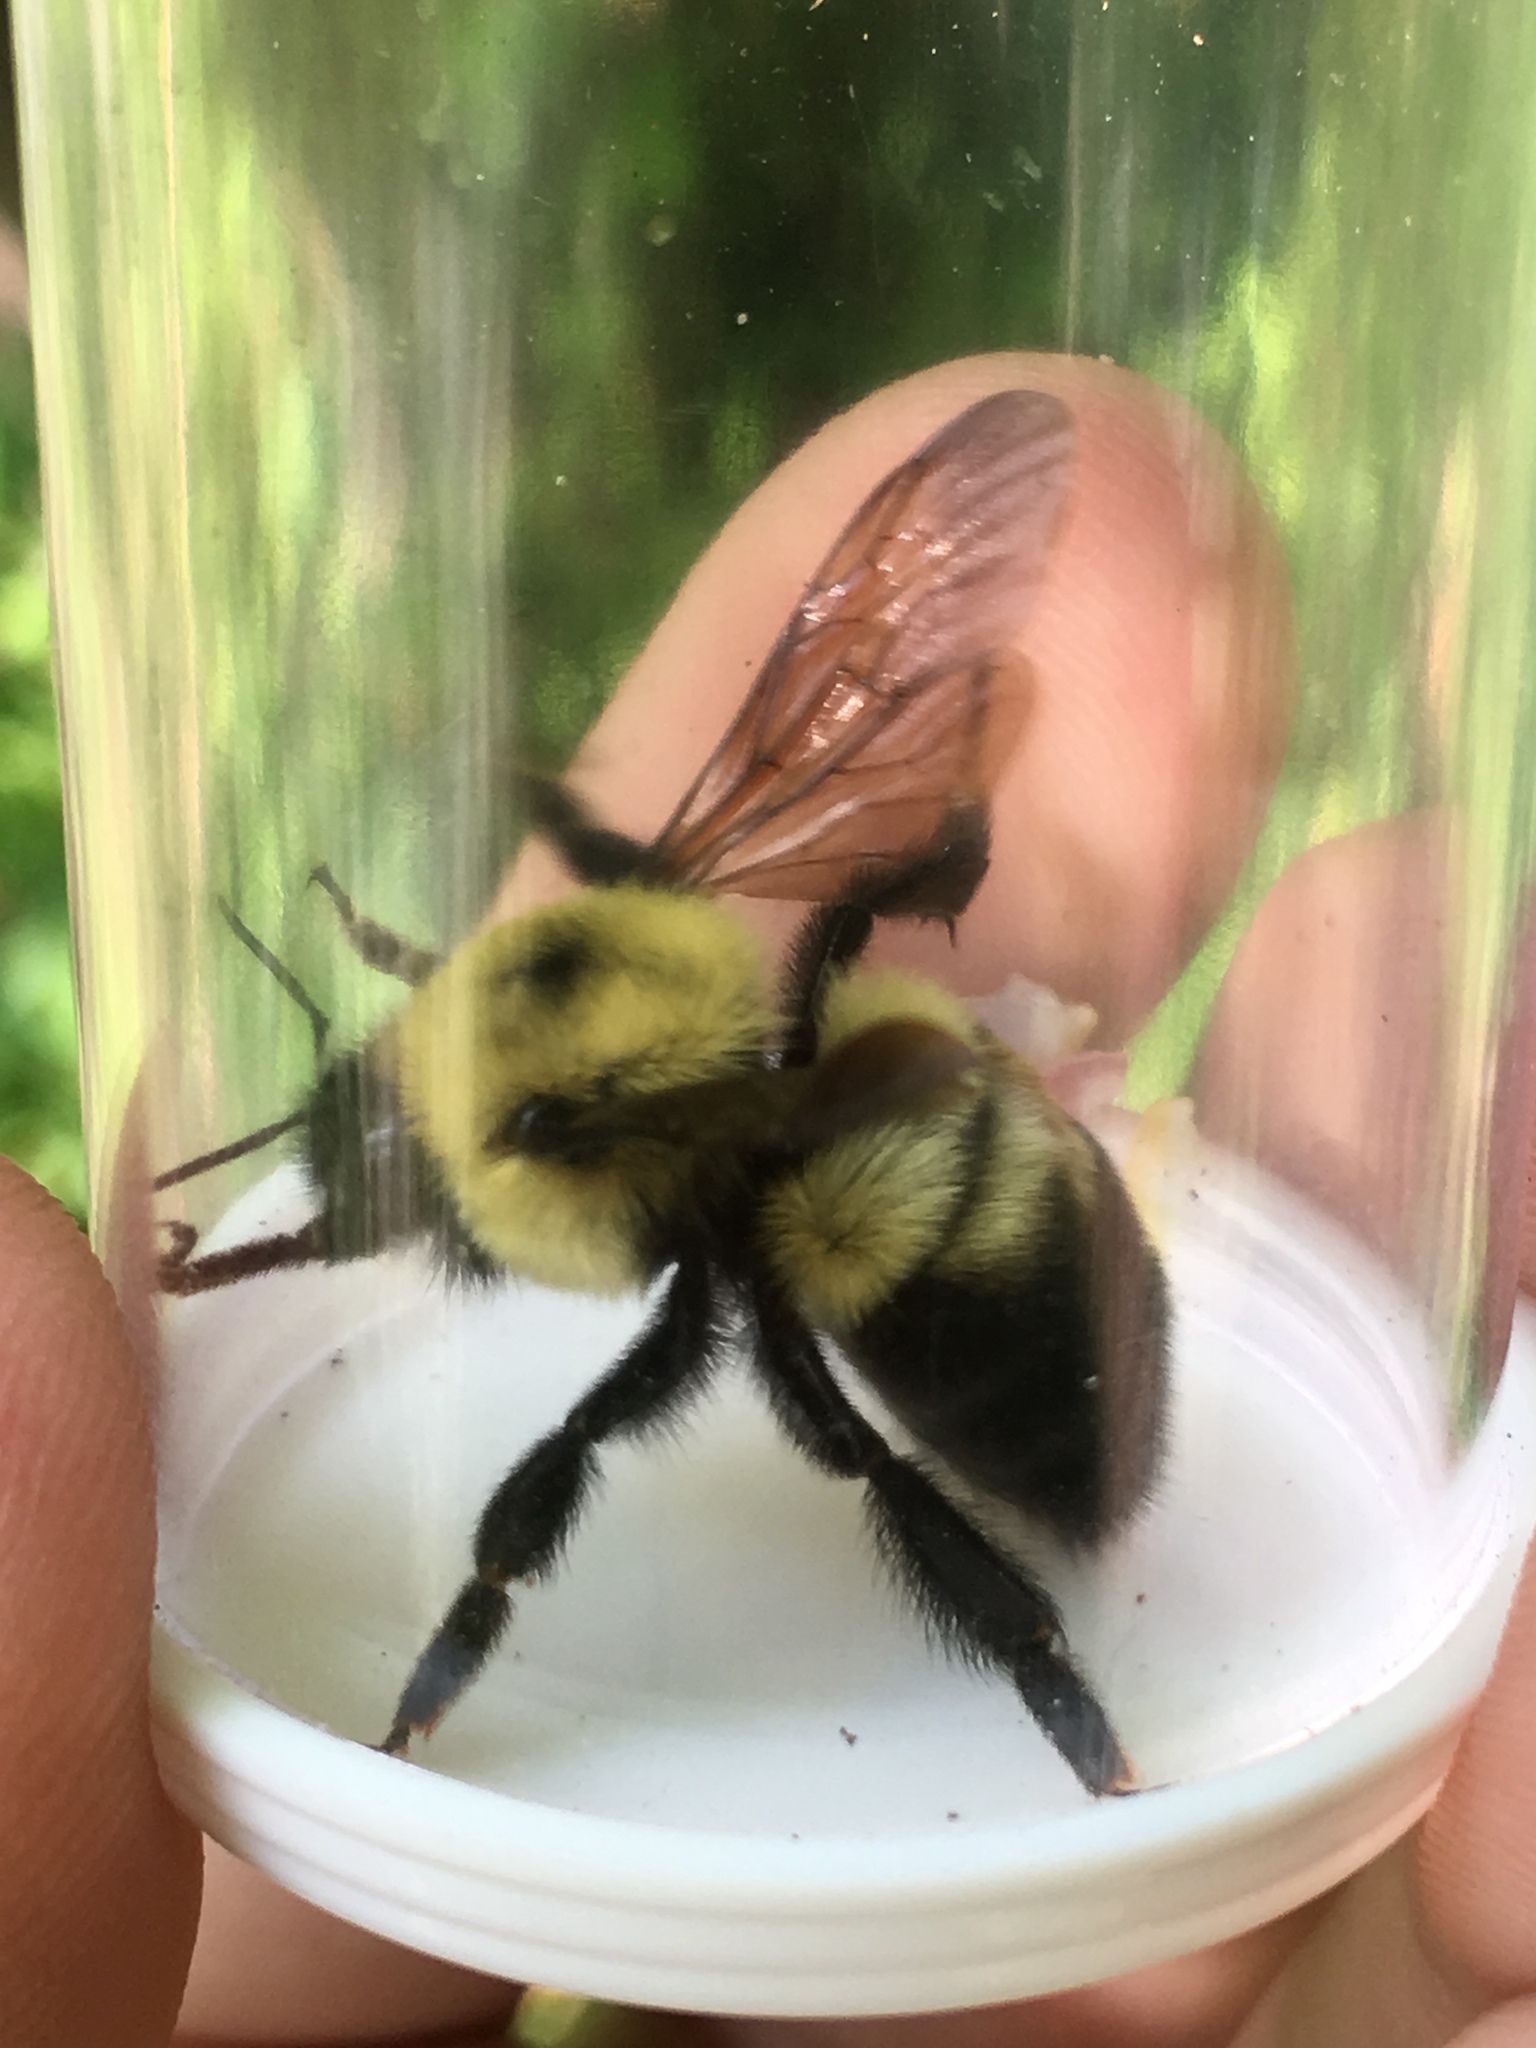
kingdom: Animalia
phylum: Arthropoda
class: Insecta
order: Hymenoptera
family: Apidae
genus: Bombus
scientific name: Bombus bimaculatus
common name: Two-spotted bumble bee
